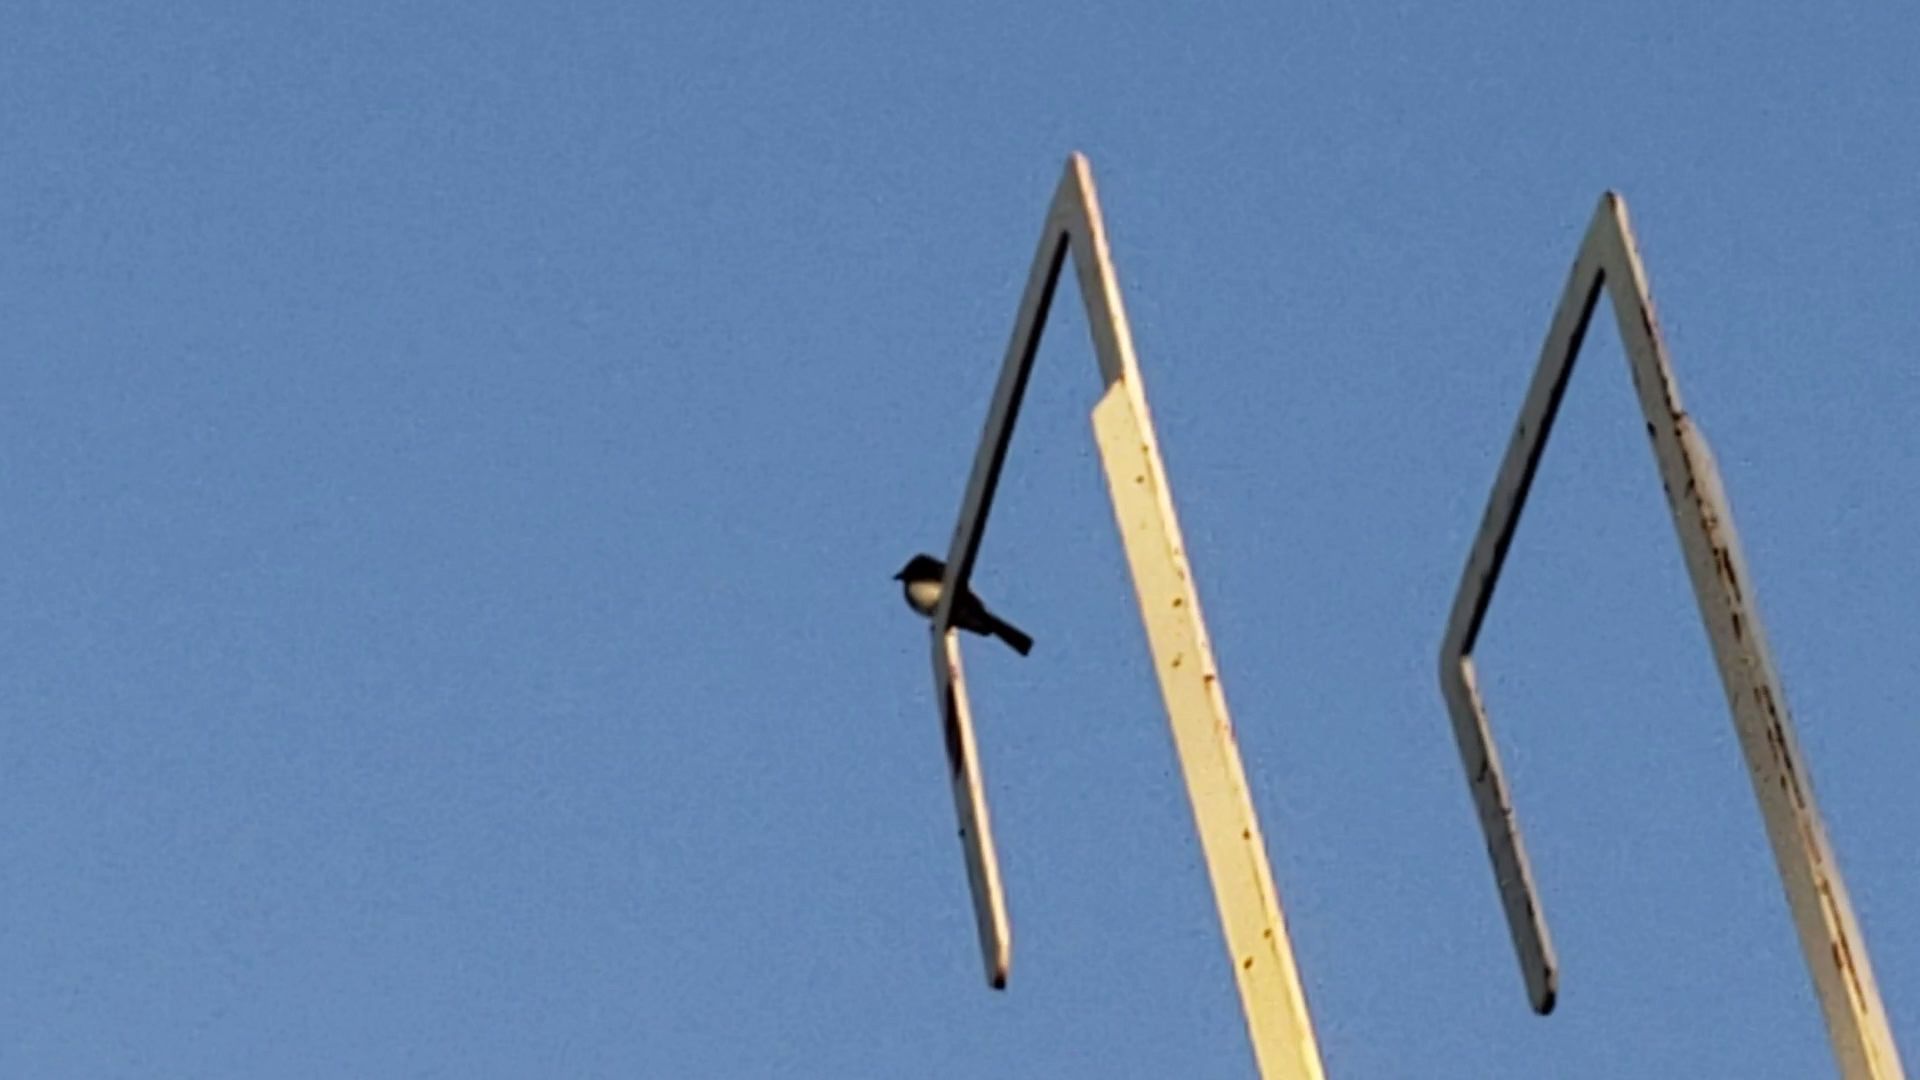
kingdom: Animalia
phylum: Chordata
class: Aves
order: Passeriformes
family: Tyrannidae
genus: Sayornis
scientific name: Sayornis nigricans
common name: Black phoebe
